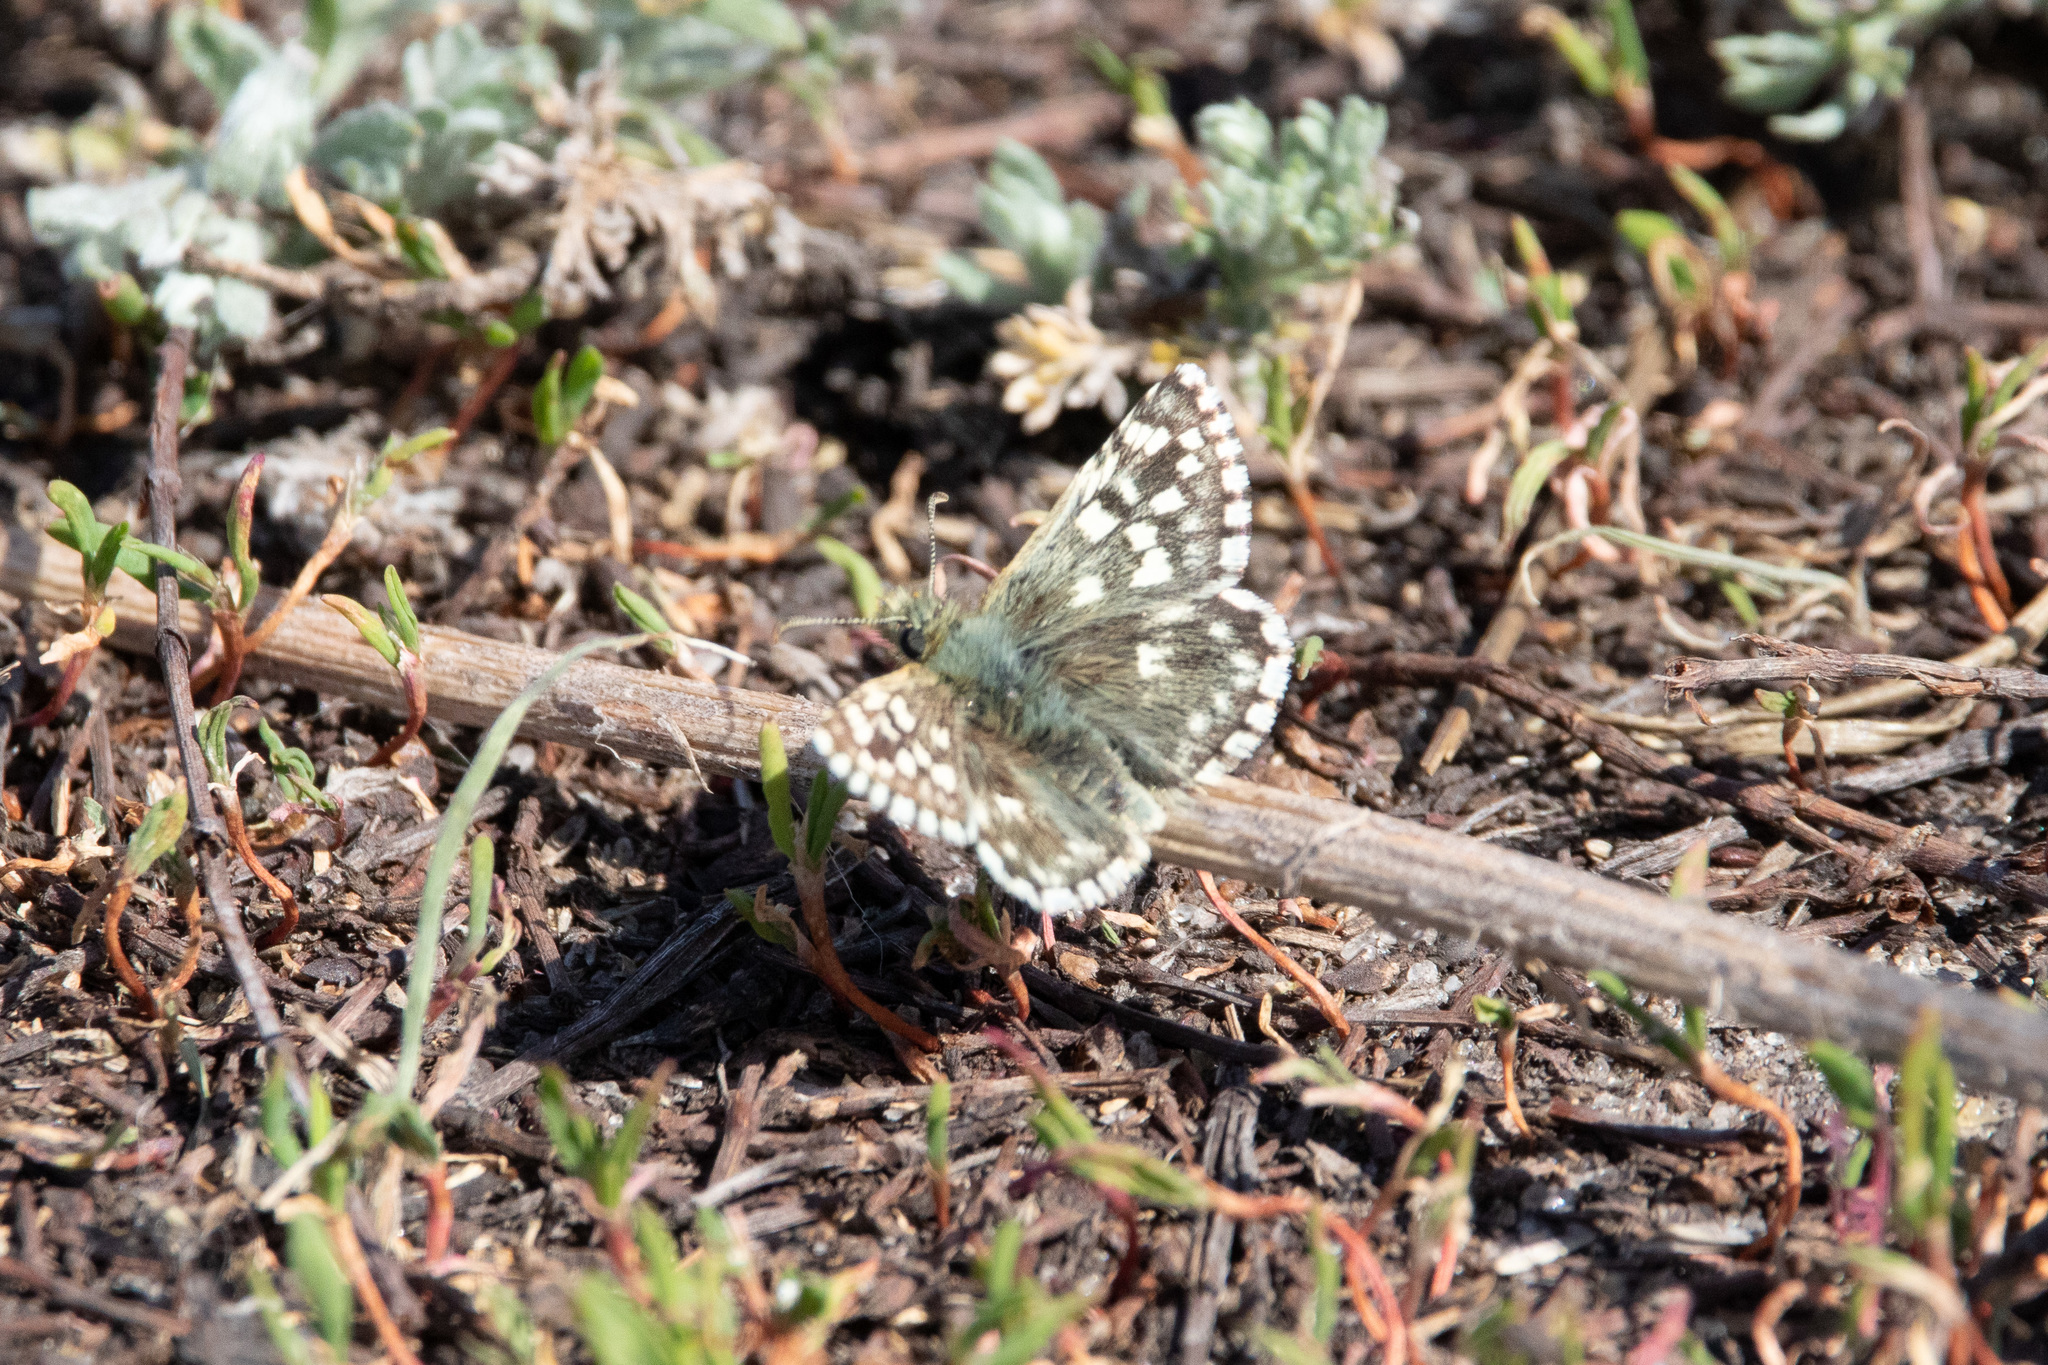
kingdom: Animalia
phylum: Arthropoda
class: Insecta
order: Lepidoptera
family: Hesperiidae
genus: Pyrgus
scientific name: Pyrgus malvae
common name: Grizzled skipper
